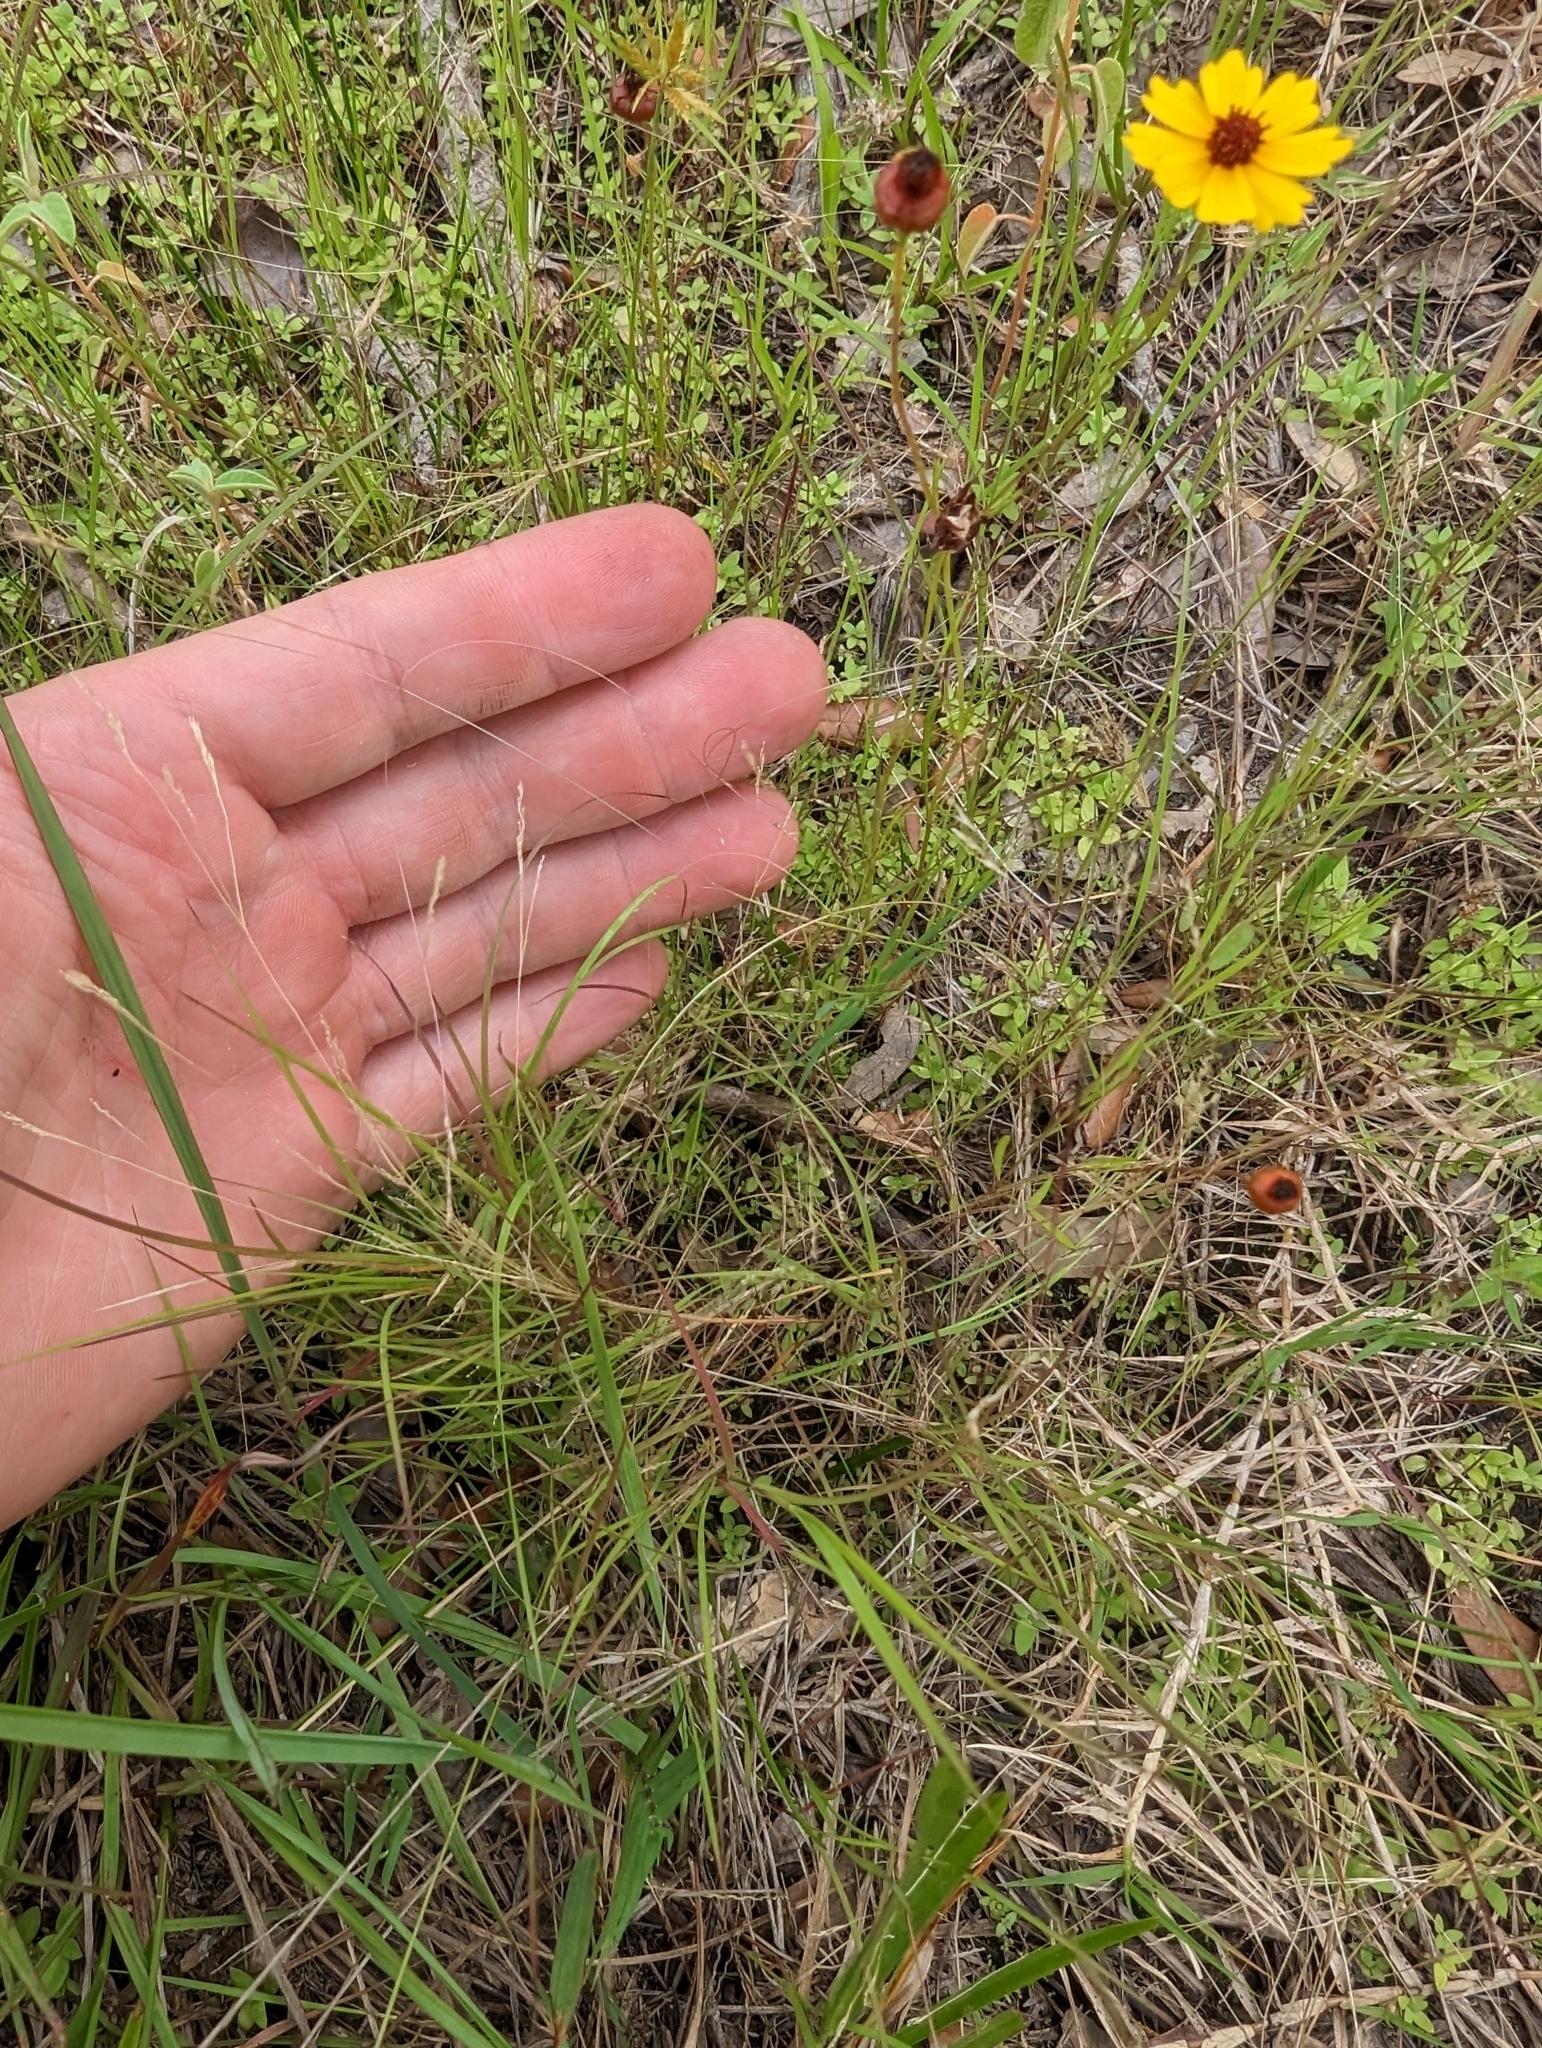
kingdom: Plantae
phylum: Tracheophyta
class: Liliopsida
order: Poales
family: Poaceae
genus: Agrostis
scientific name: Agrostis hyemalis
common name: Small bent
